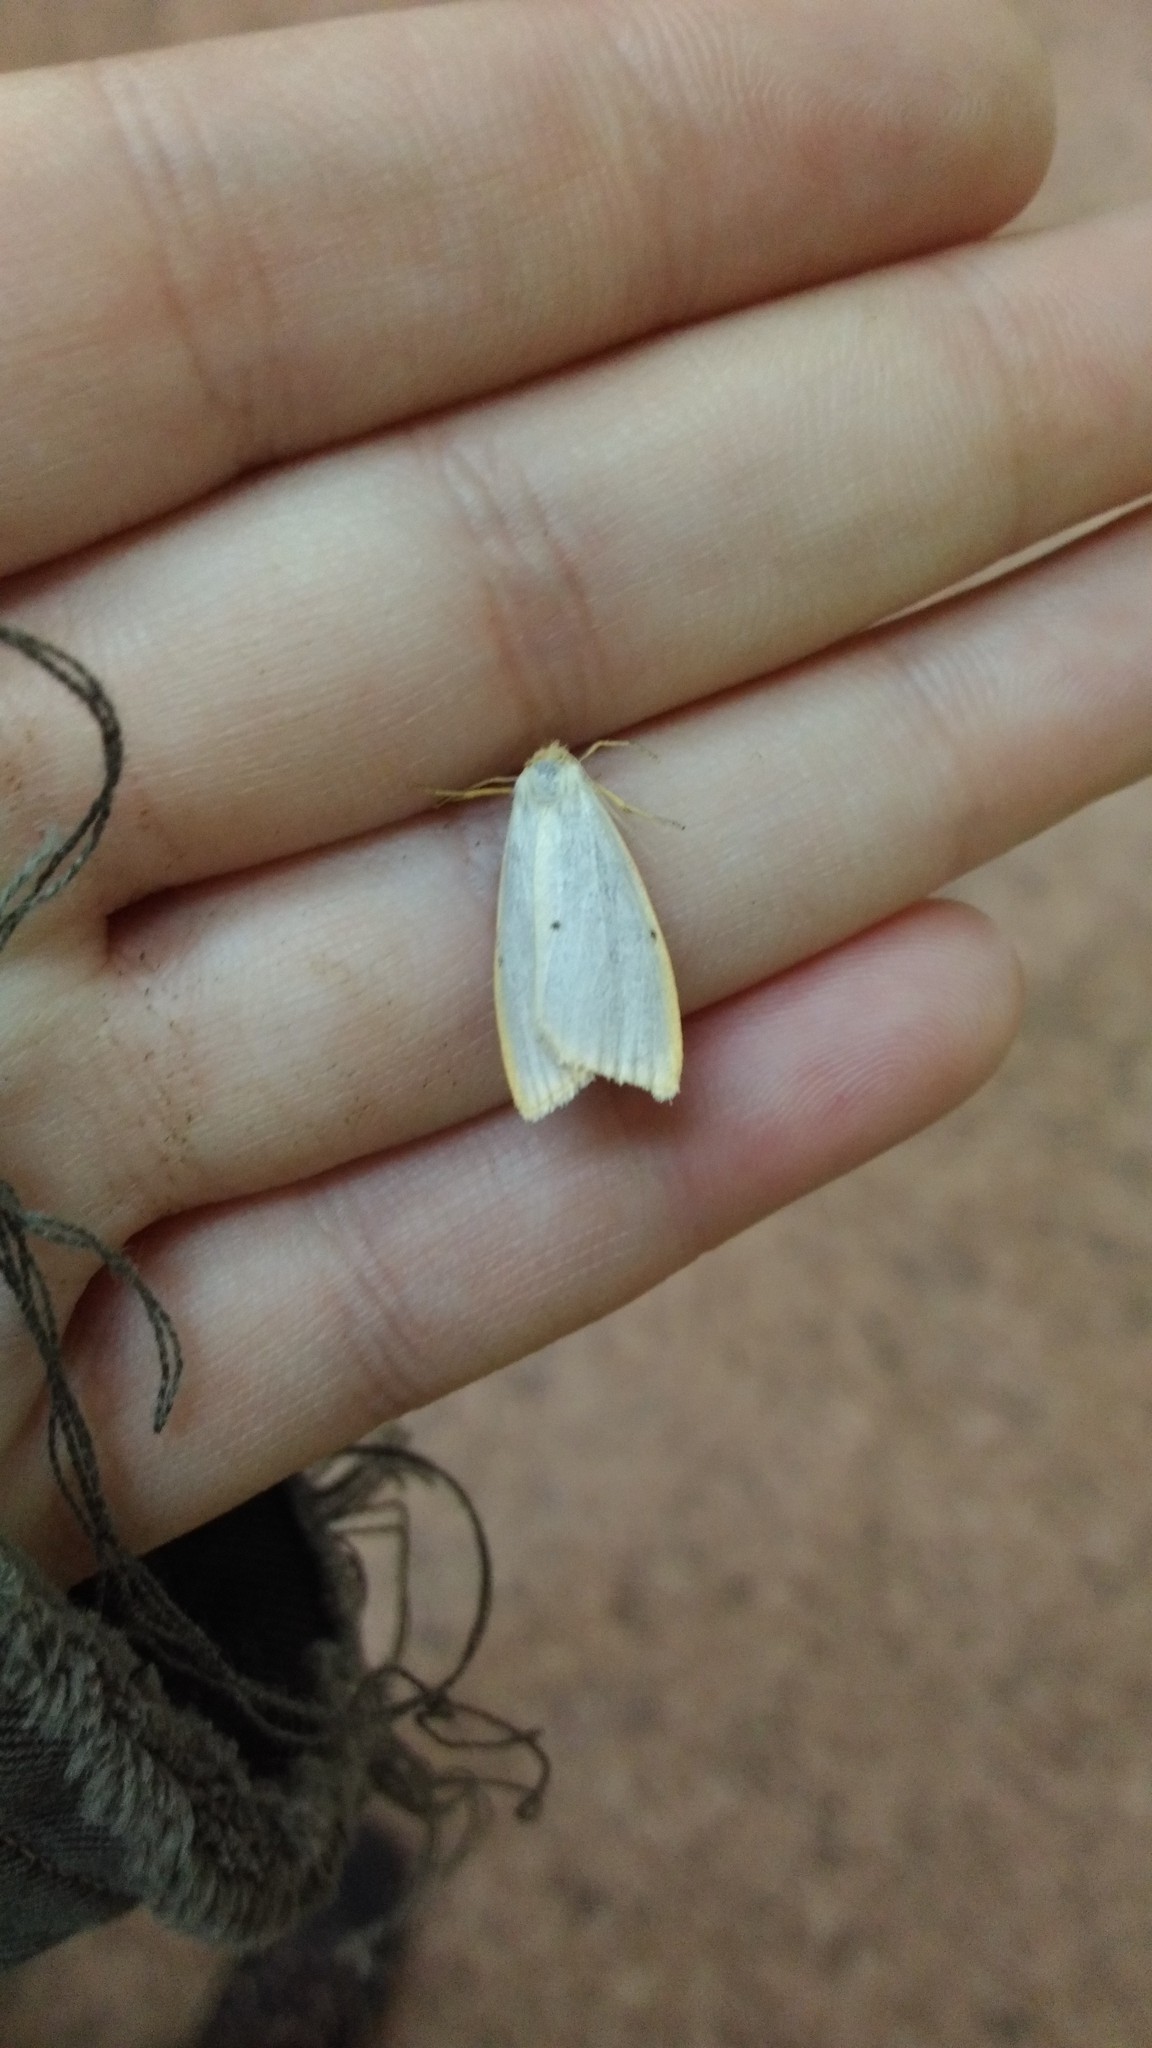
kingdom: Animalia
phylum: Arthropoda
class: Insecta
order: Lepidoptera
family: Erebidae
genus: Cybosia
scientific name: Cybosia mesomella
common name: Four-dotted footman
